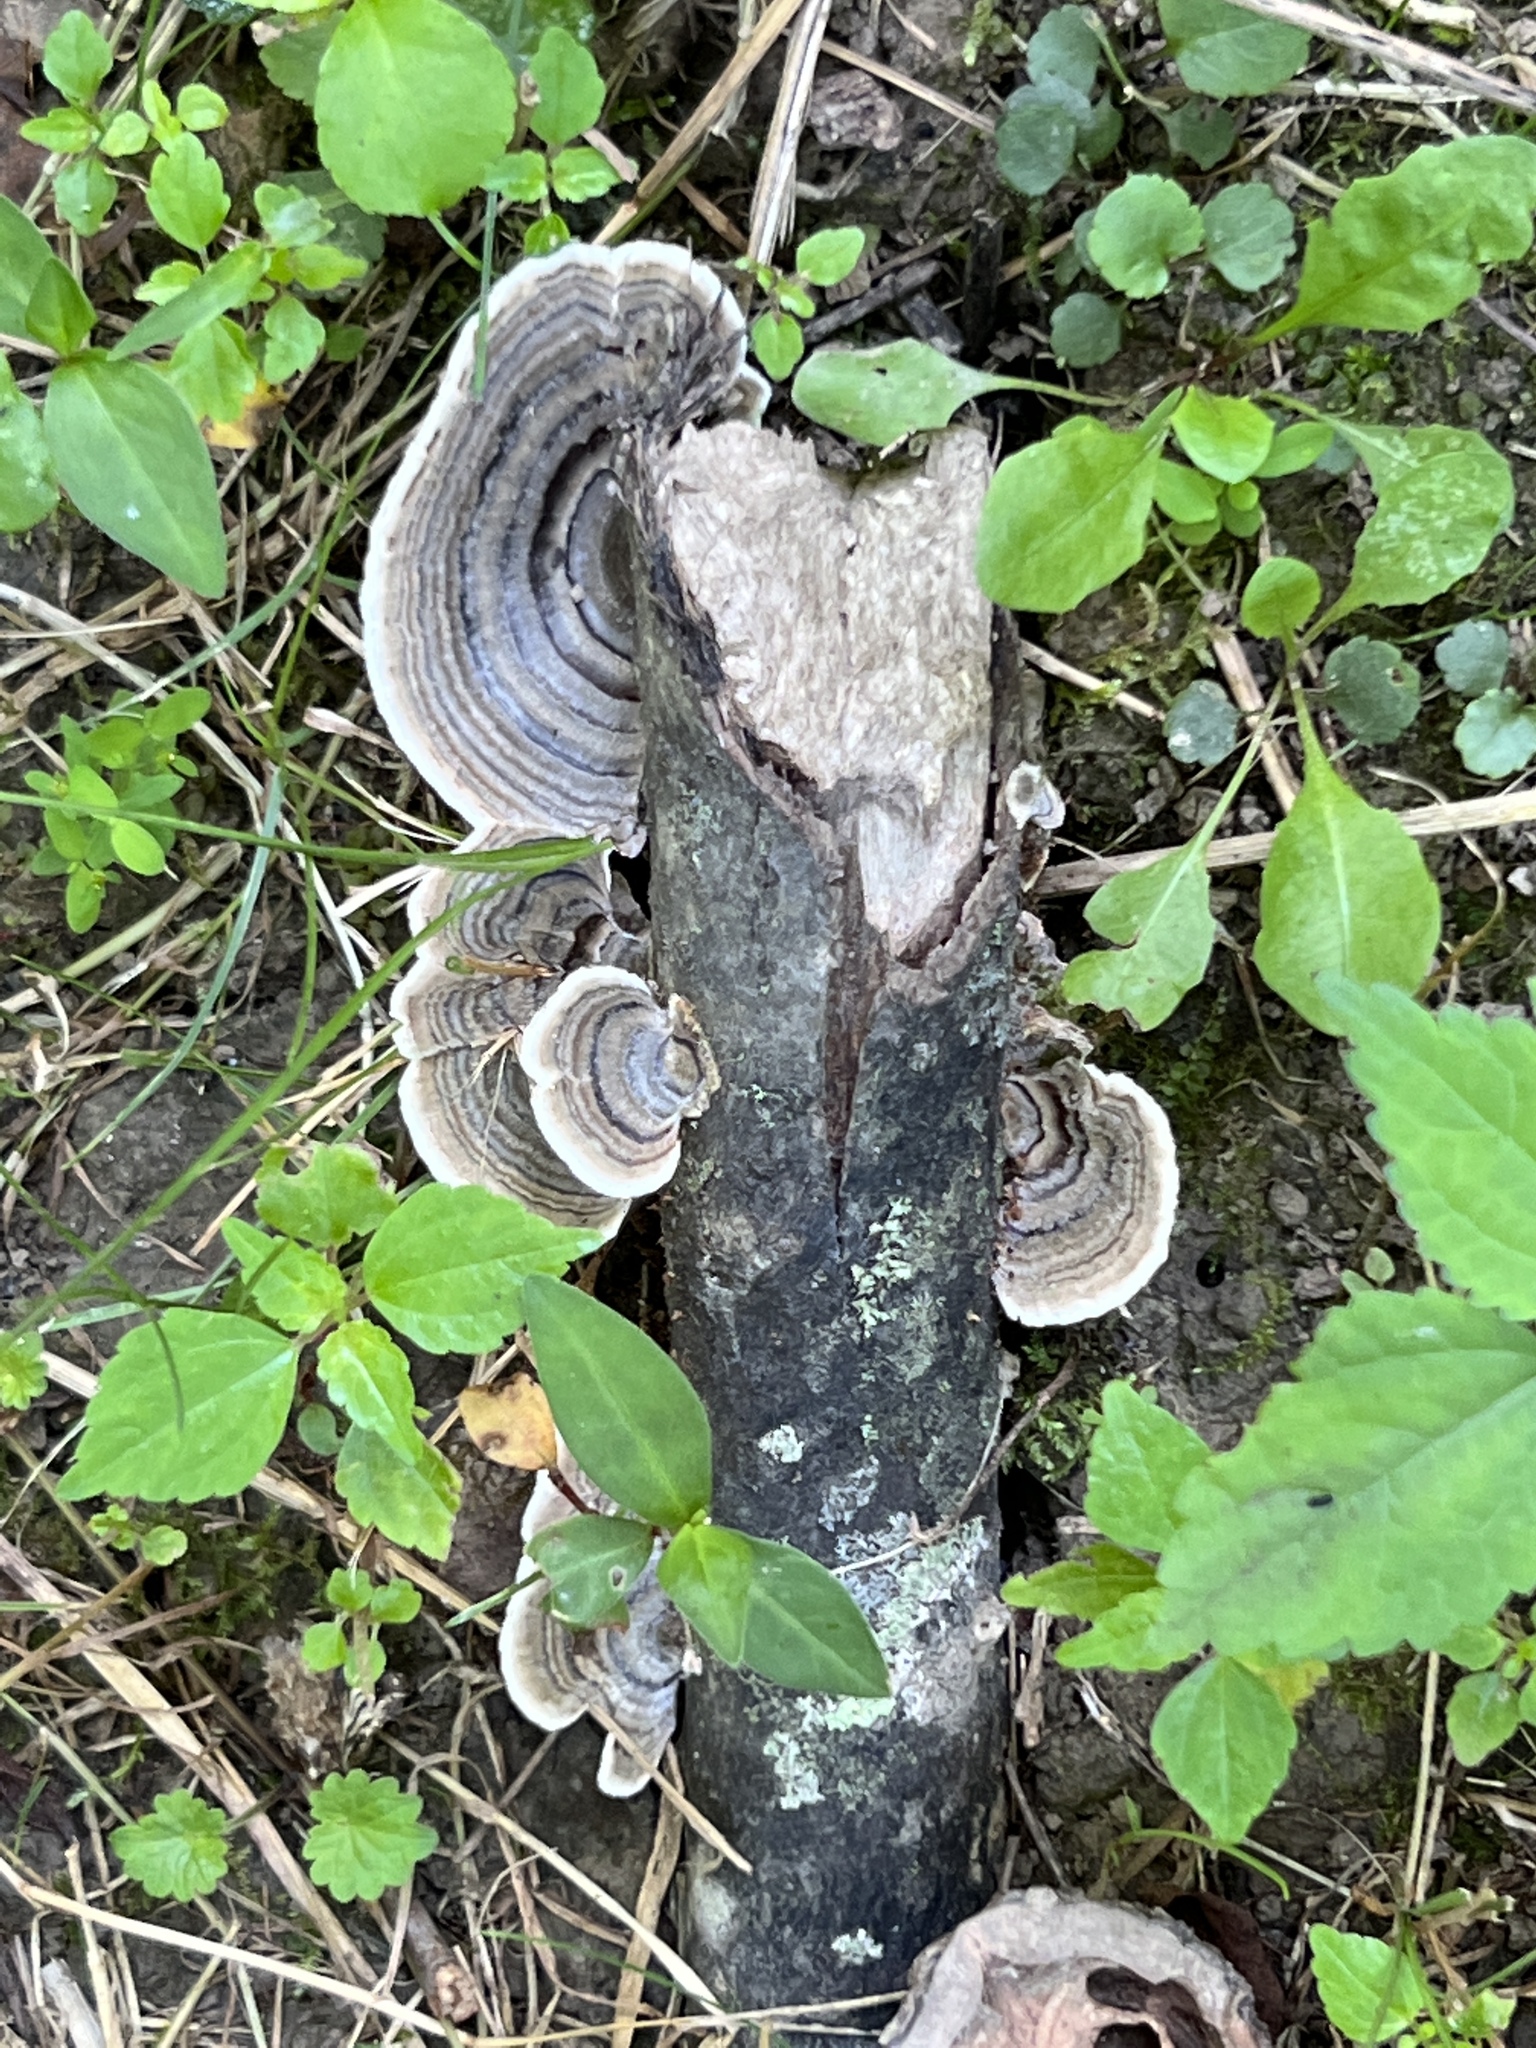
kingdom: Fungi
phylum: Basidiomycota
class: Agaricomycetes
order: Polyporales
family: Polyporaceae
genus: Trametes
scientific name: Trametes versicolor
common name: Turkeytail
